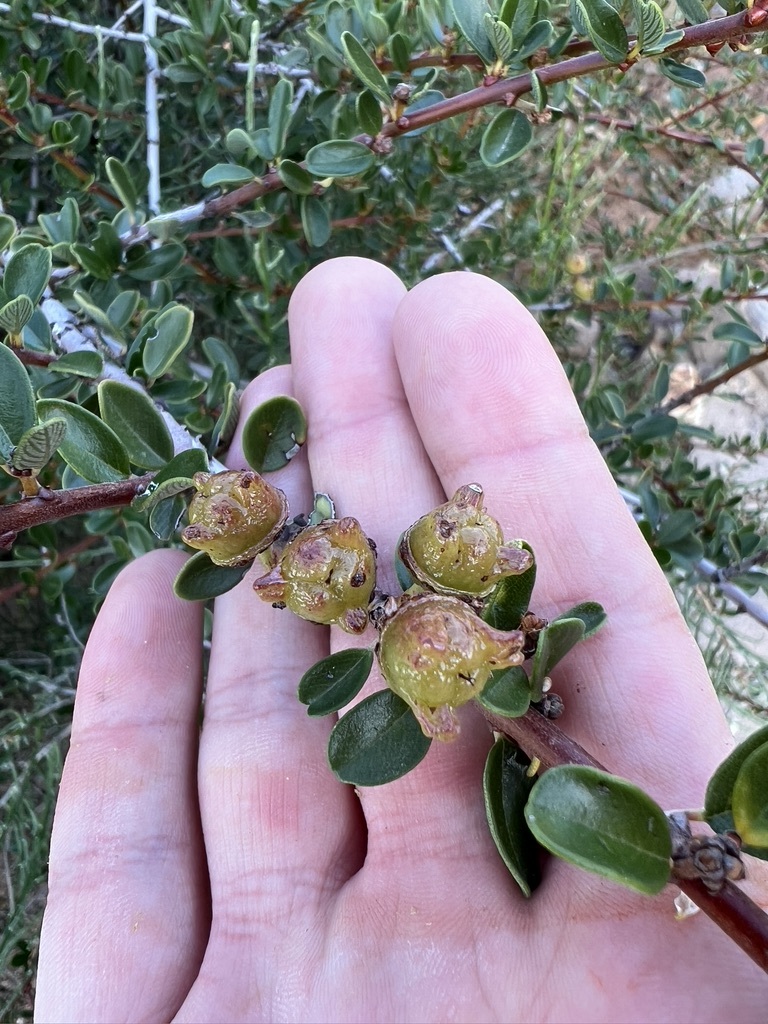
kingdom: Plantae
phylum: Tracheophyta
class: Magnoliopsida
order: Rosales
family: Rhamnaceae
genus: Ceanothus
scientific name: Ceanothus megacarpus
